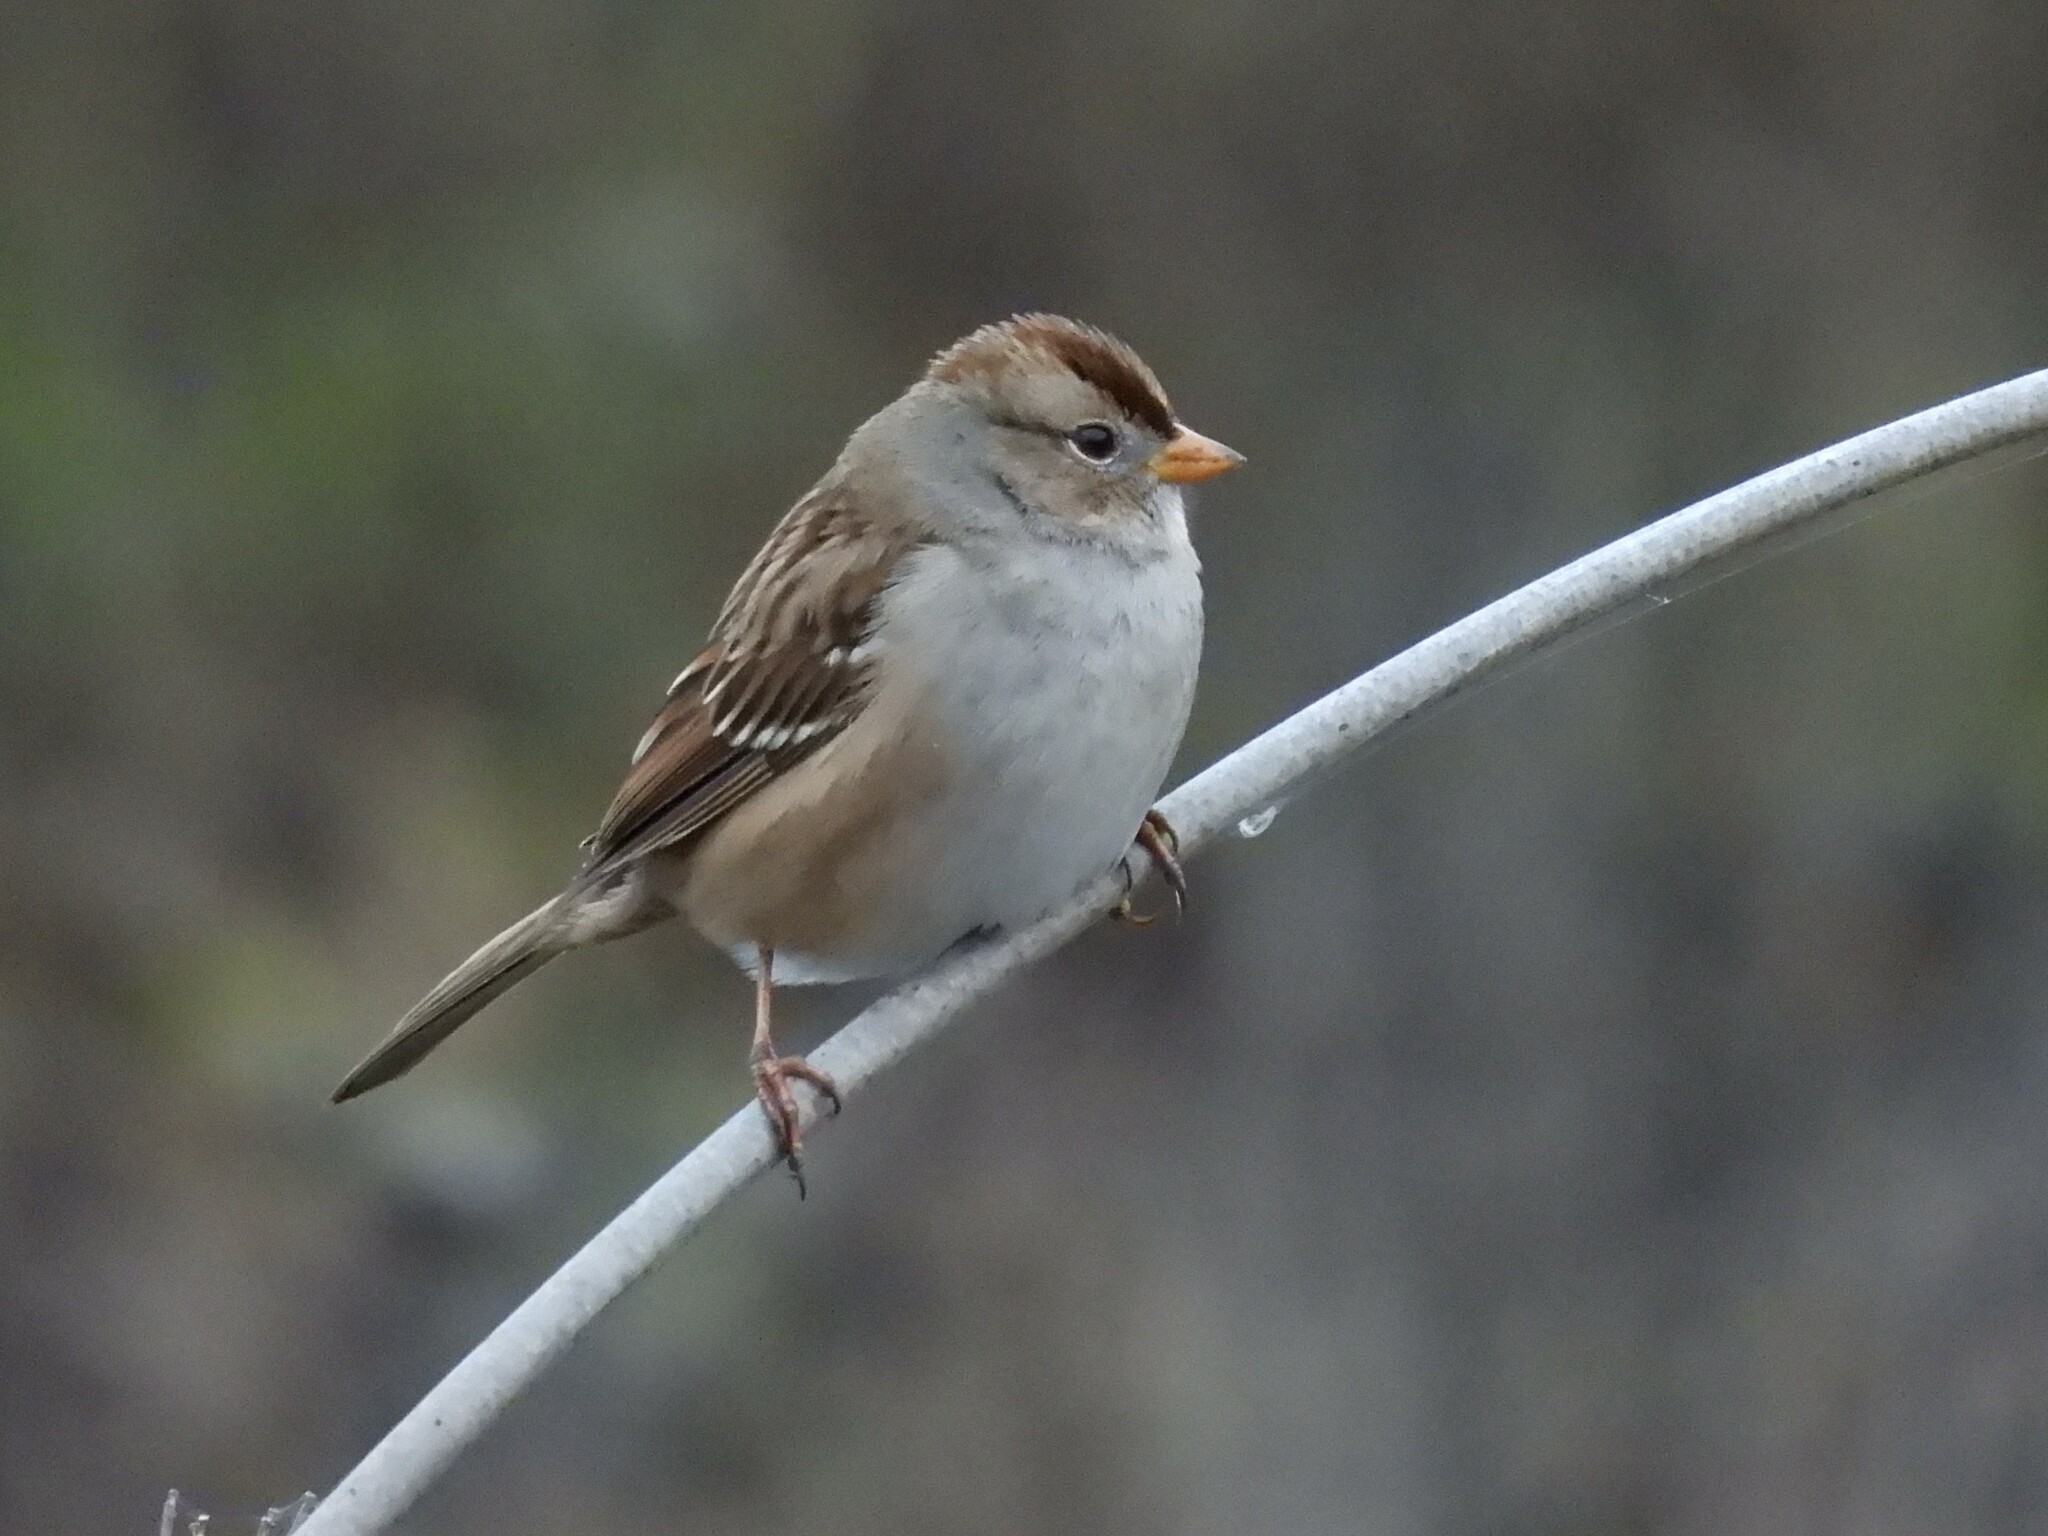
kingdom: Animalia
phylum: Chordata
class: Aves
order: Passeriformes
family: Passerellidae
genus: Zonotrichia
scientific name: Zonotrichia leucophrys
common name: White-crowned sparrow
